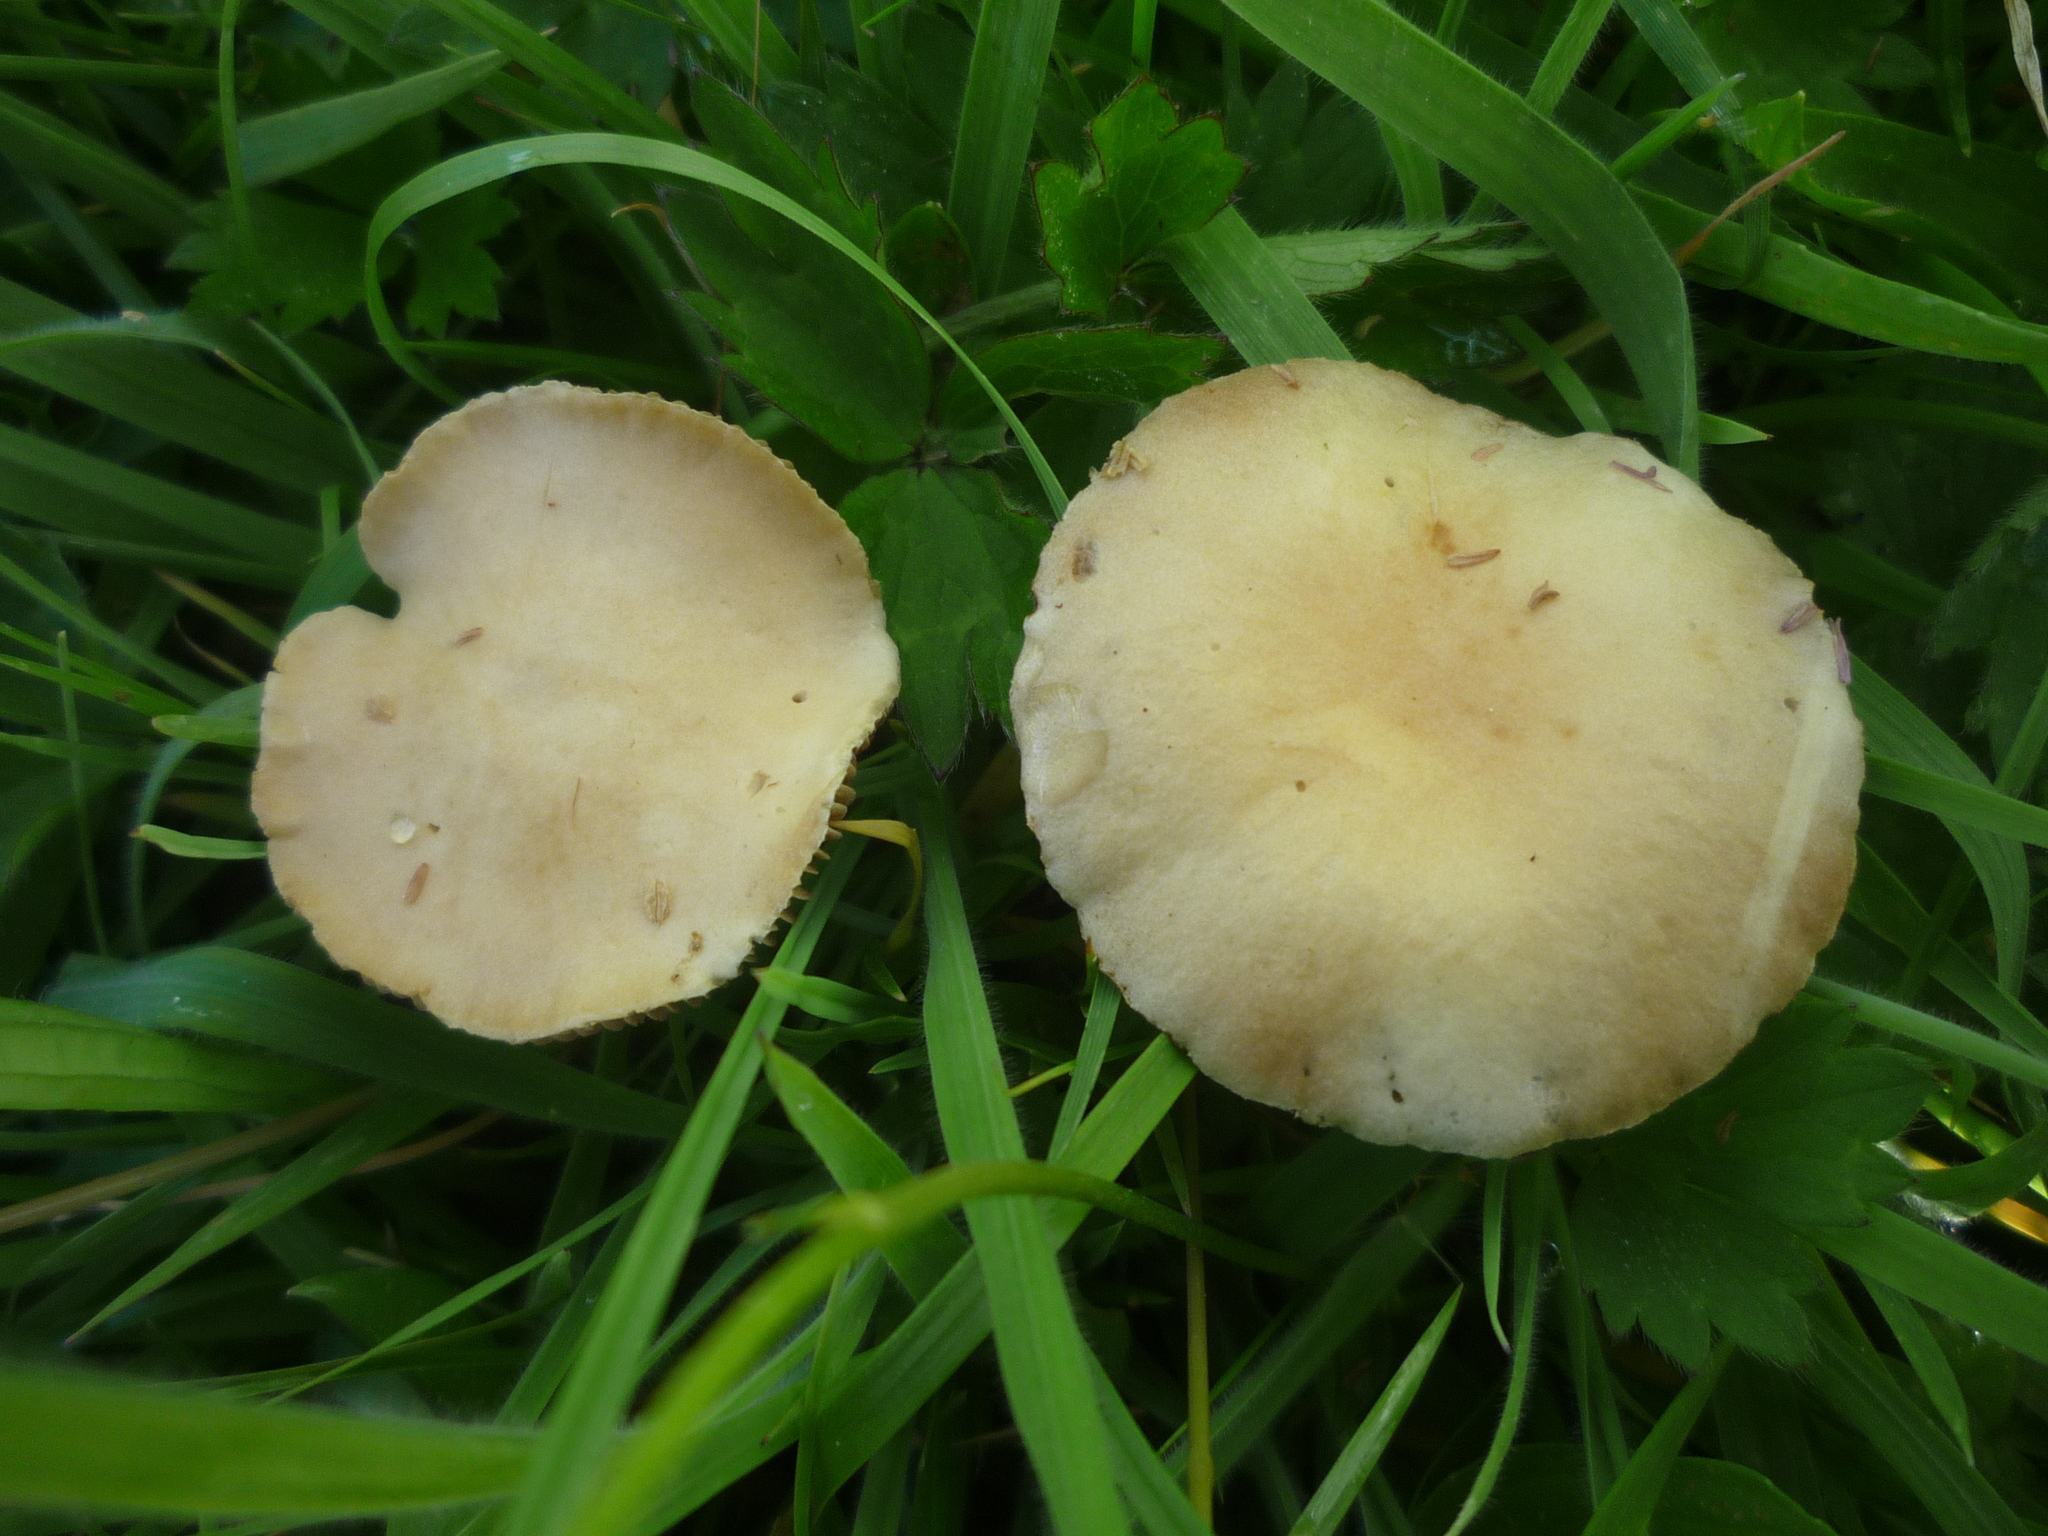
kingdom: Fungi
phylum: Basidiomycota
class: Agaricomycetes
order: Agaricales
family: Strophariaceae
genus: Agrocybe
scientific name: Agrocybe pediades
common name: Common fieldcap
